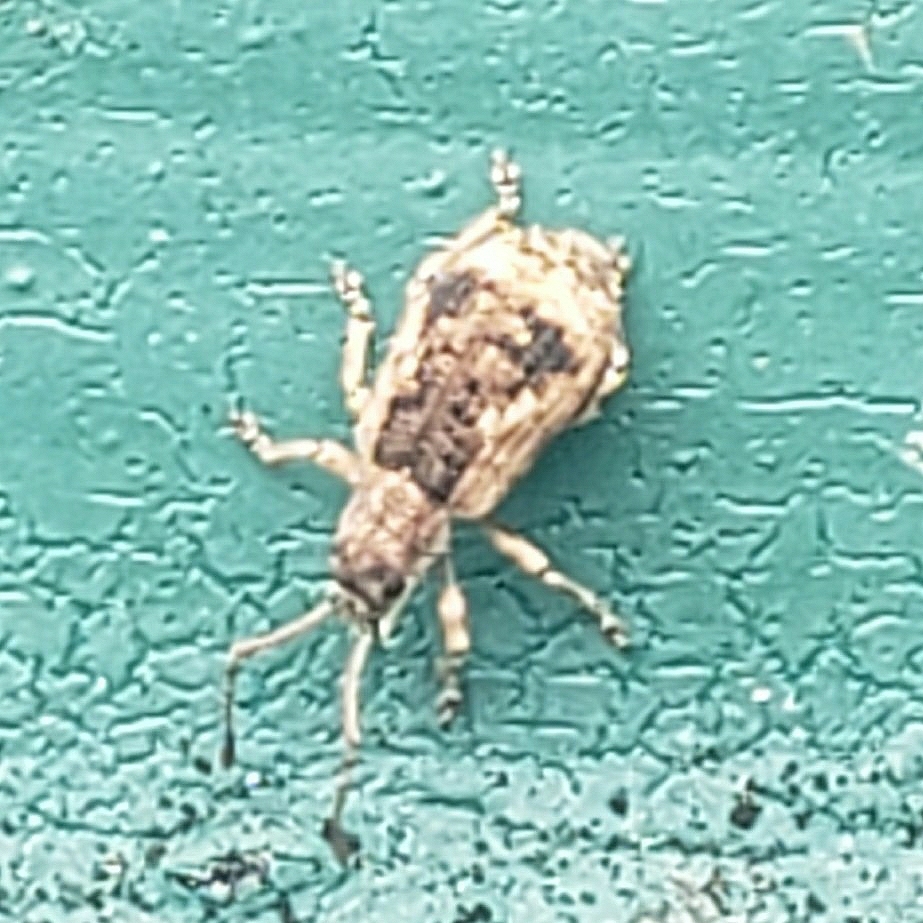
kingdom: Animalia
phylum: Arthropoda
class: Insecta
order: Coleoptera
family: Curculionidae
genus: Pseudoedophrys
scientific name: Pseudoedophrys hilleri
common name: Weevil
